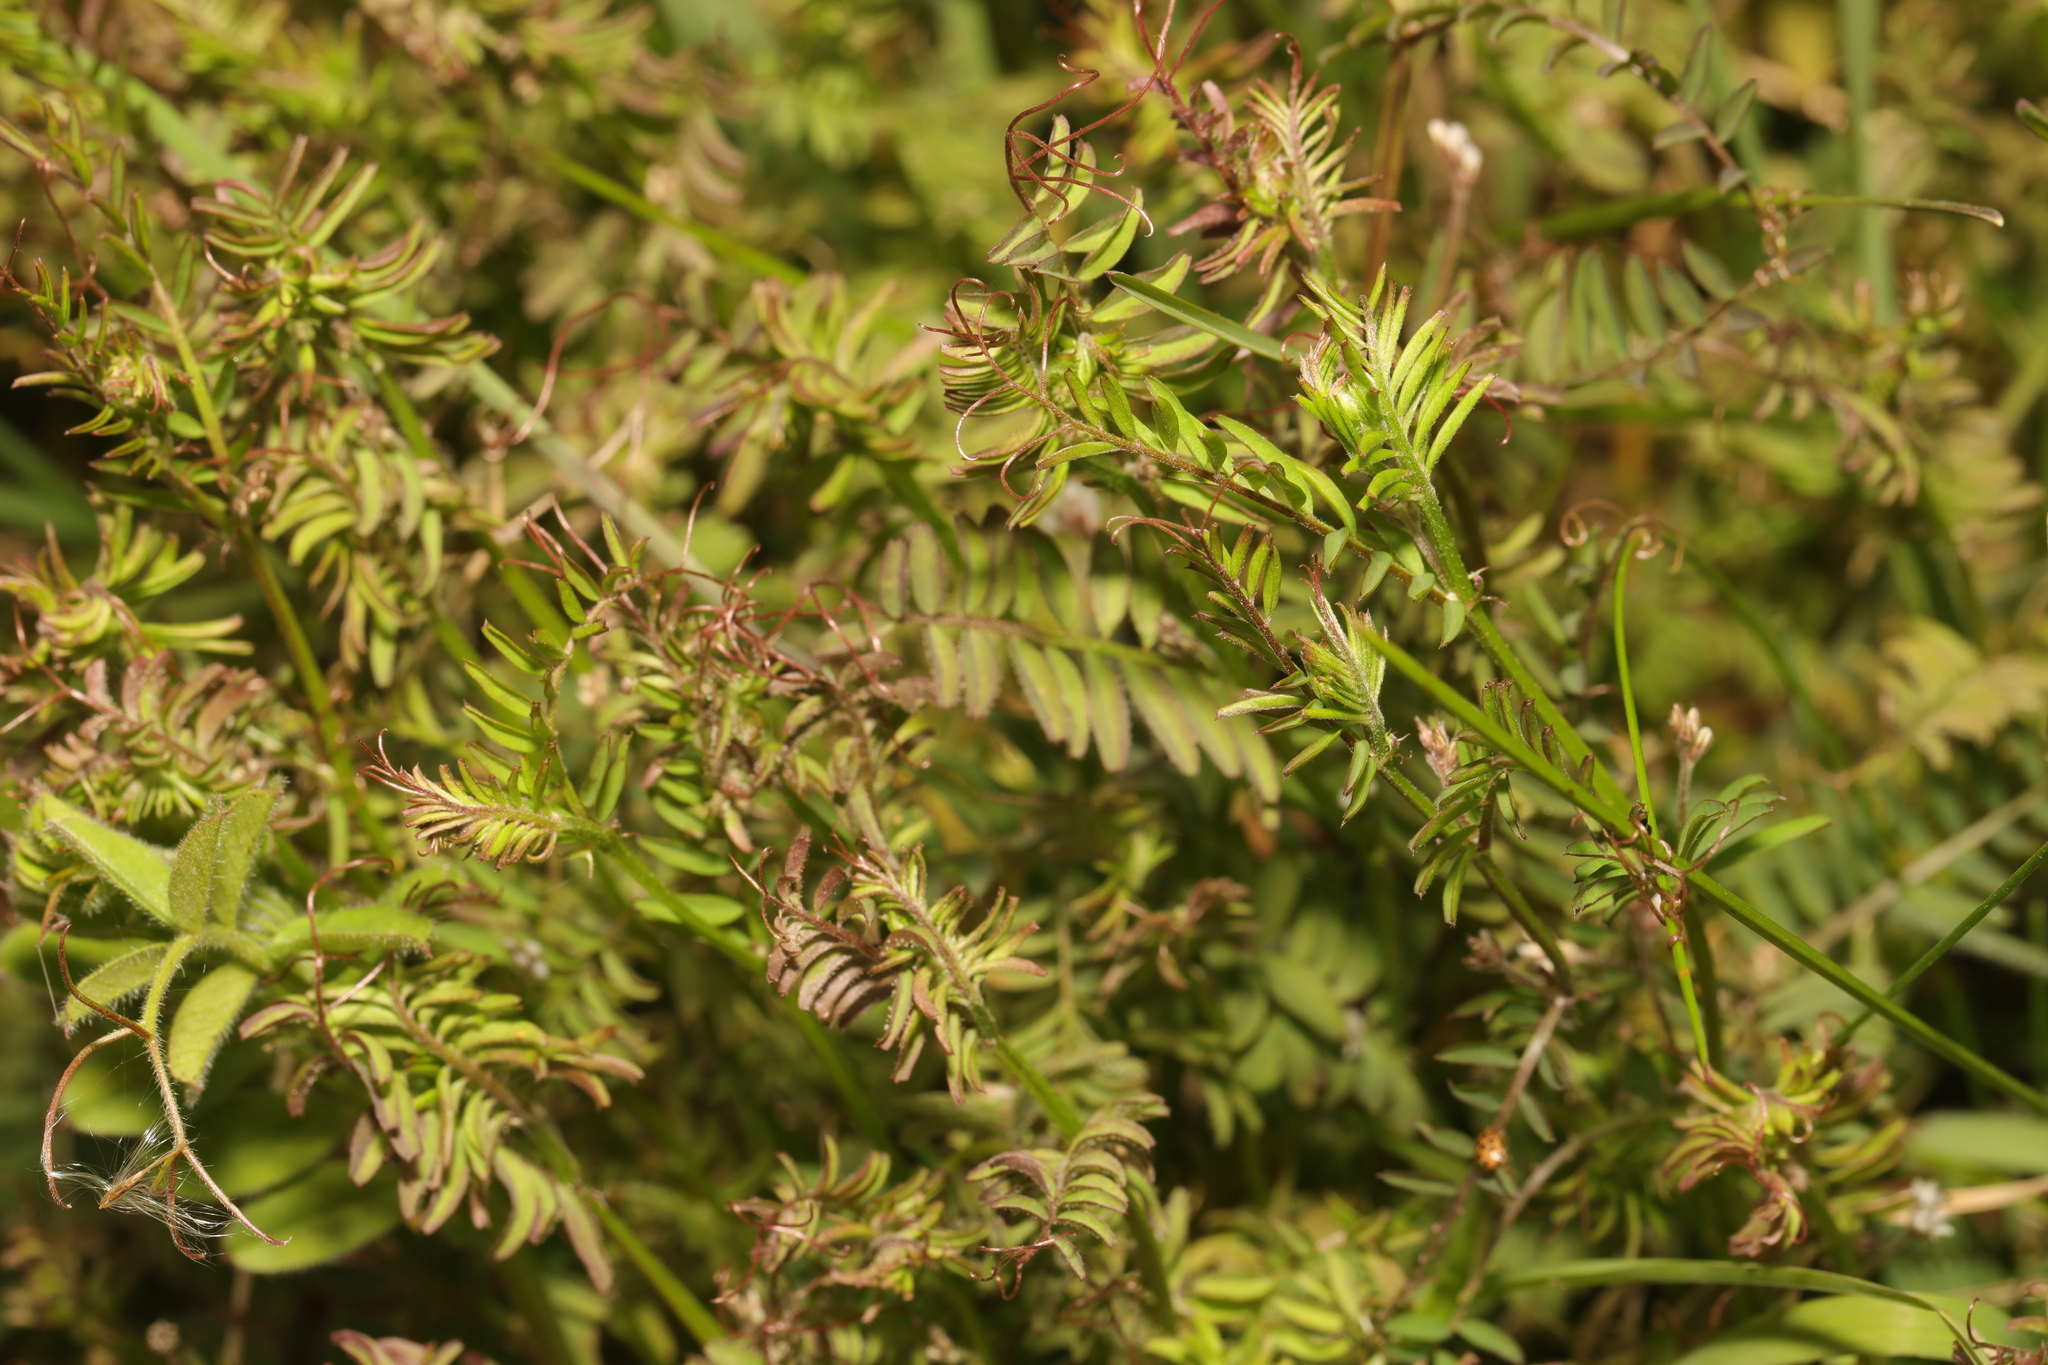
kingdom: Plantae
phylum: Tracheophyta
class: Magnoliopsida
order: Fabales
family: Fabaceae
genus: Vicia
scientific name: Vicia hirsuta
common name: Tiny vetch
